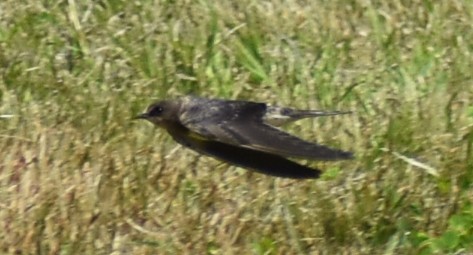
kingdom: Animalia
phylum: Chordata
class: Aves
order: Passeriformes
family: Hirundinidae
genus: Hirundo
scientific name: Hirundo rustica
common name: Barn swallow
